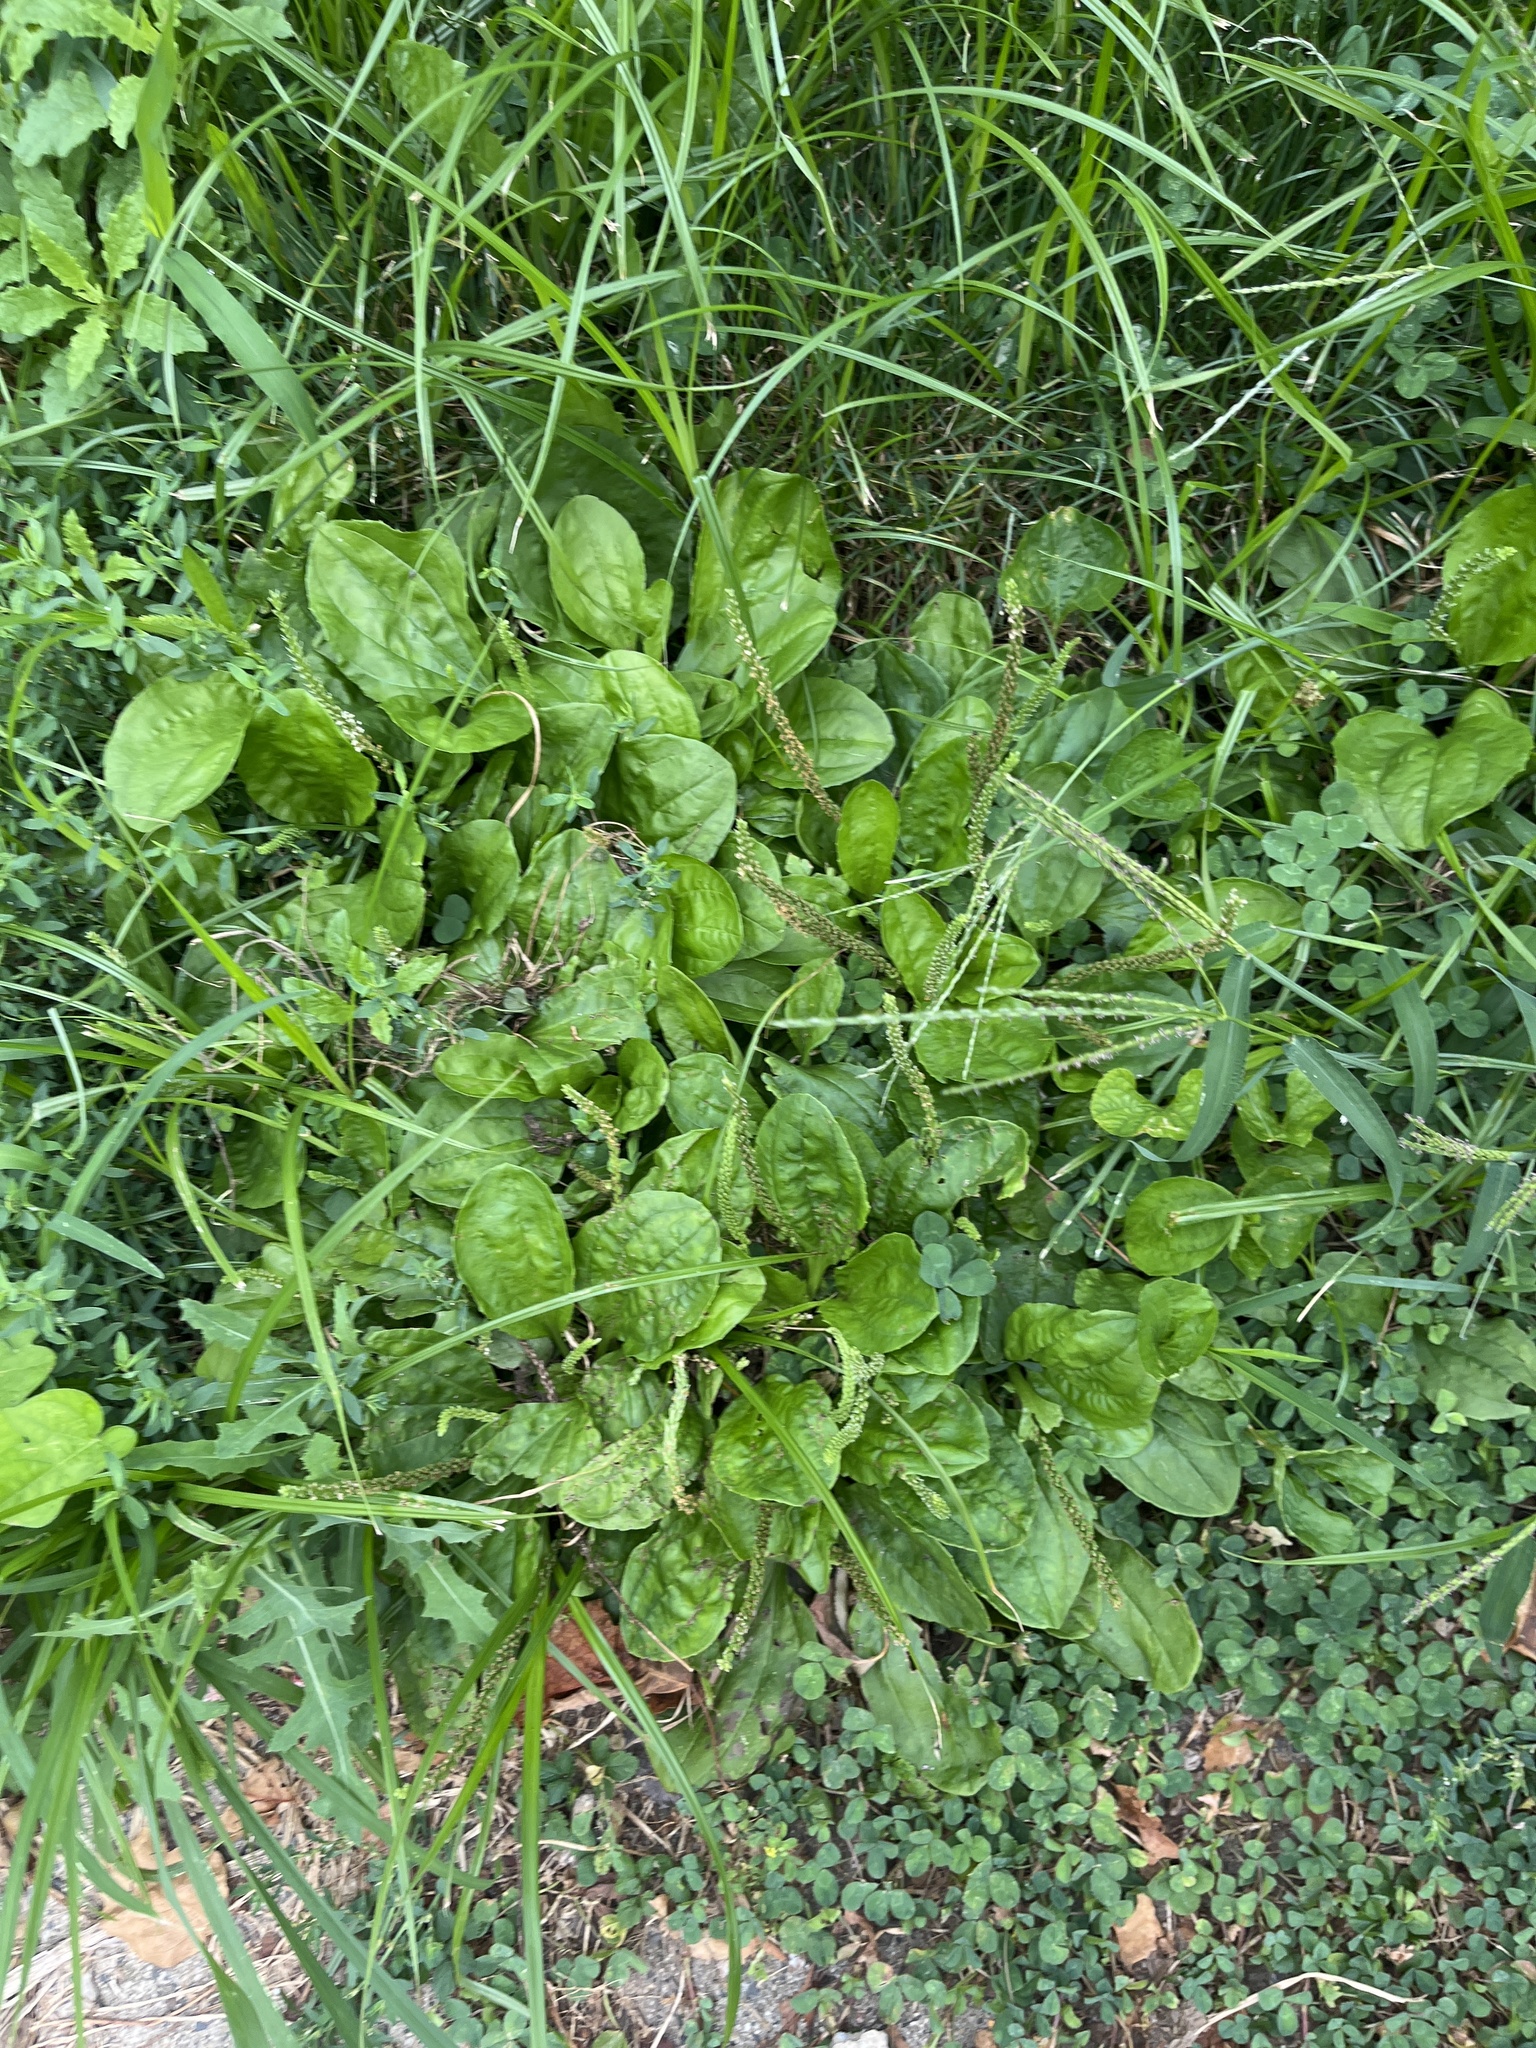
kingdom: Plantae
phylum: Tracheophyta
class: Magnoliopsida
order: Lamiales
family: Plantaginaceae
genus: Plantago
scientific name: Plantago major
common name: Common plantain
